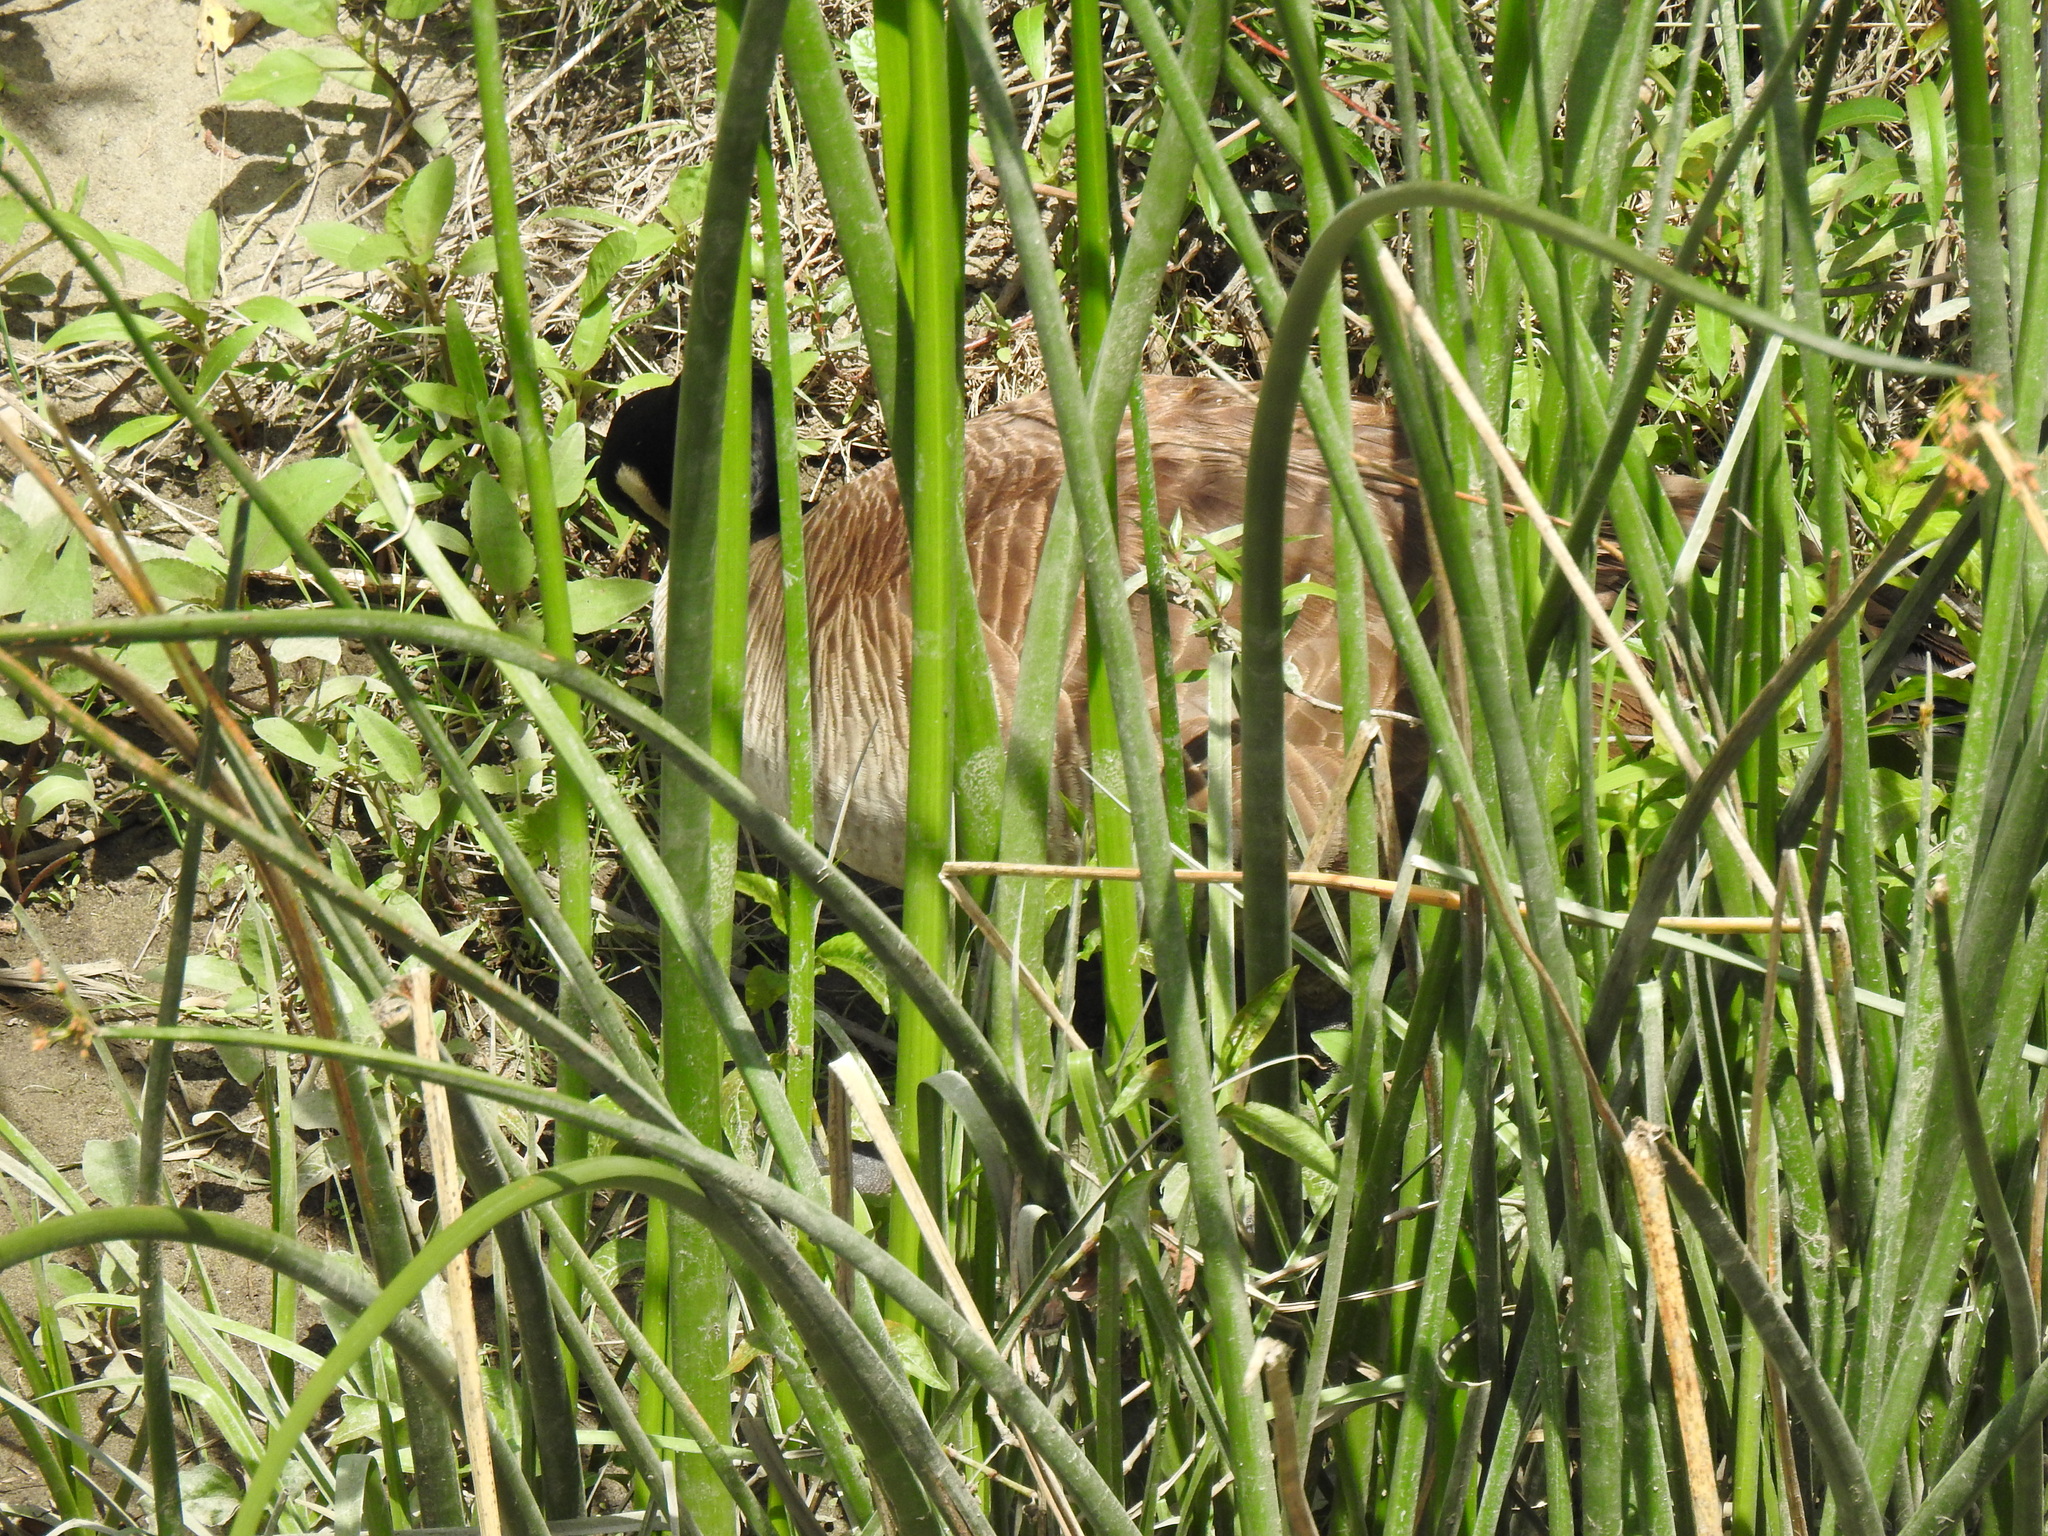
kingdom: Animalia
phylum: Chordata
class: Aves
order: Anseriformes
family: Anatidae
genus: Branta
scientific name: Branta canadensis
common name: Canada goose
